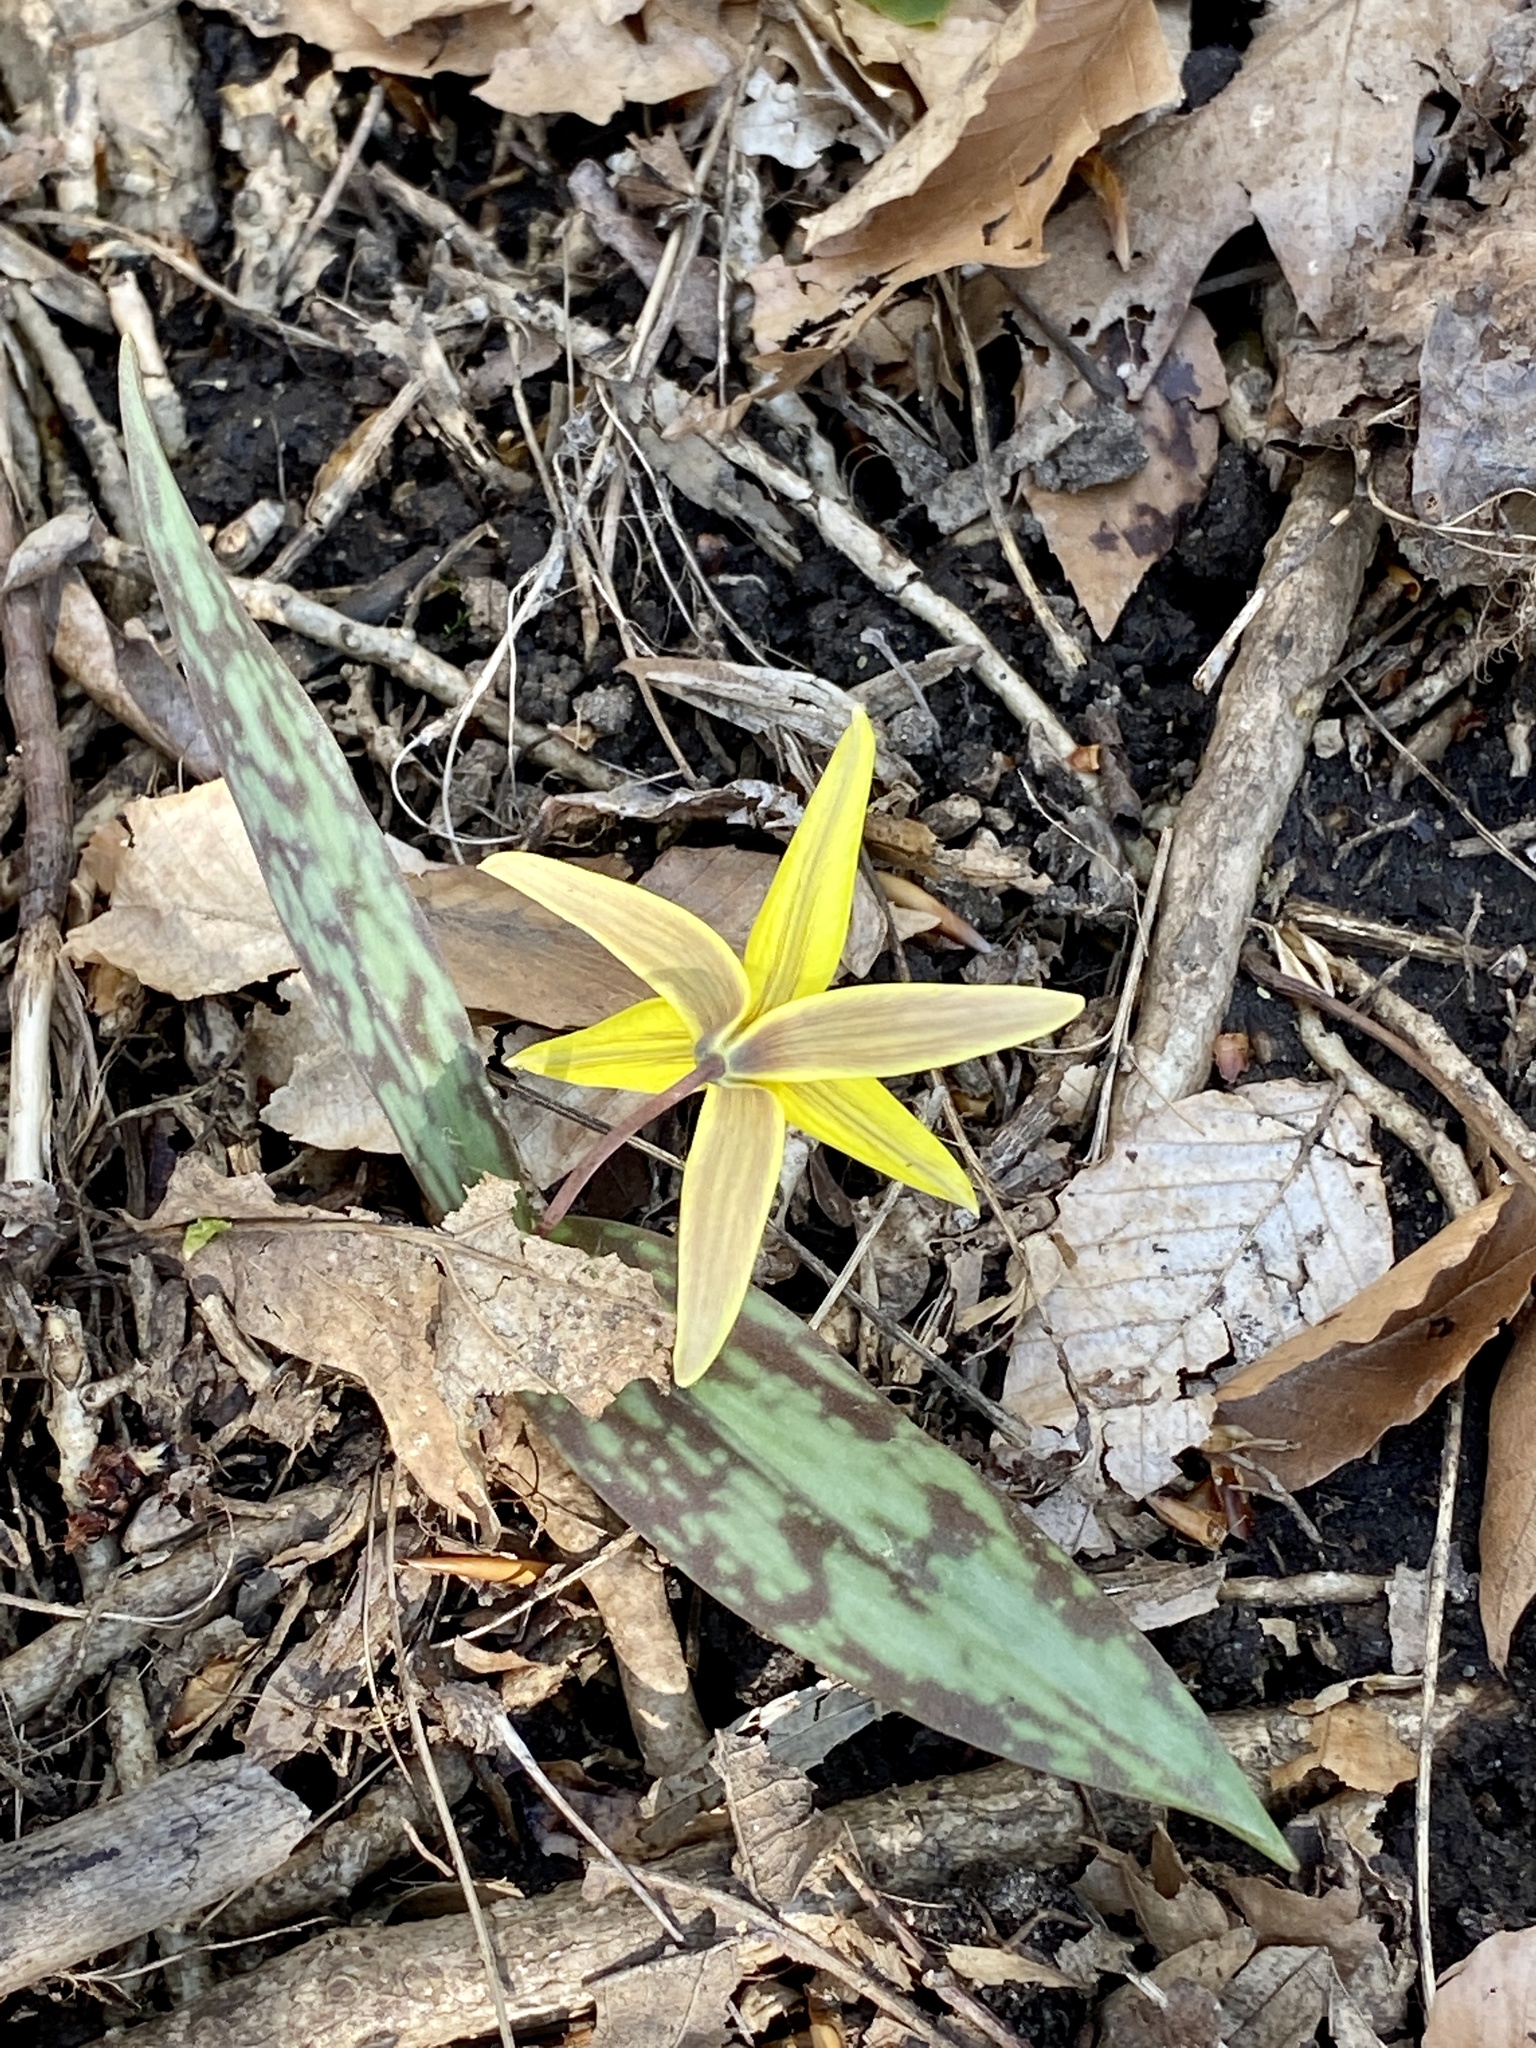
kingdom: Plantae
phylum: Tracheophyta
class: Liliopsida
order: Liliales
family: Liliaceae
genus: Erythronium
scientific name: Erythronium americanum
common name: Yellow adder's-tongue
